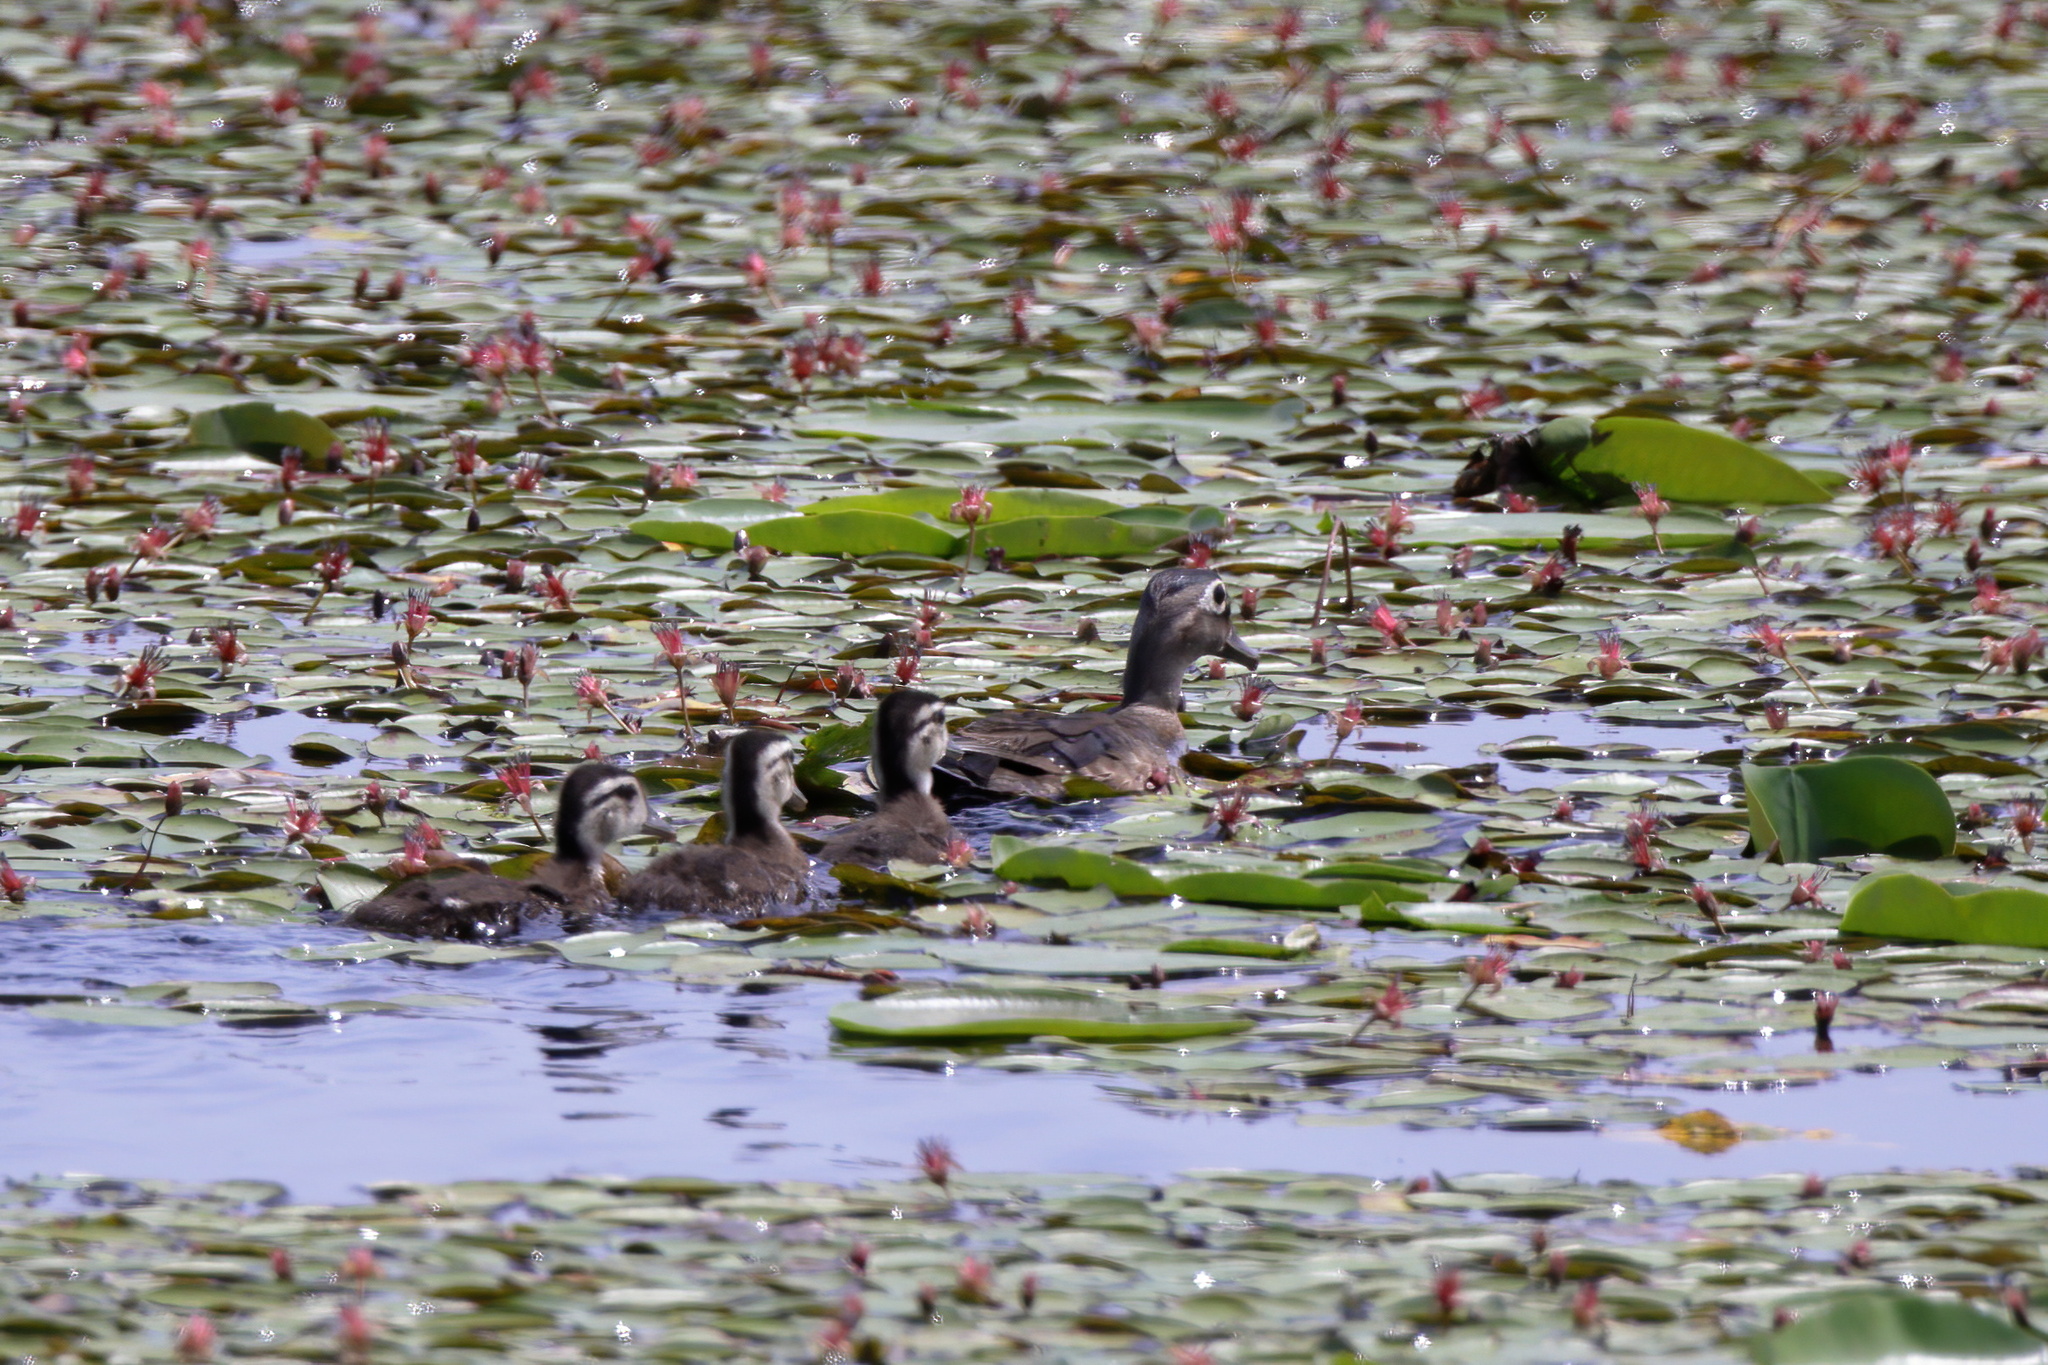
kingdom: Animalia
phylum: Chordata
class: Aves
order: Anseriformes
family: Anatidae
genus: Aix
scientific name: Aix sponsa
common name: Wood duck
